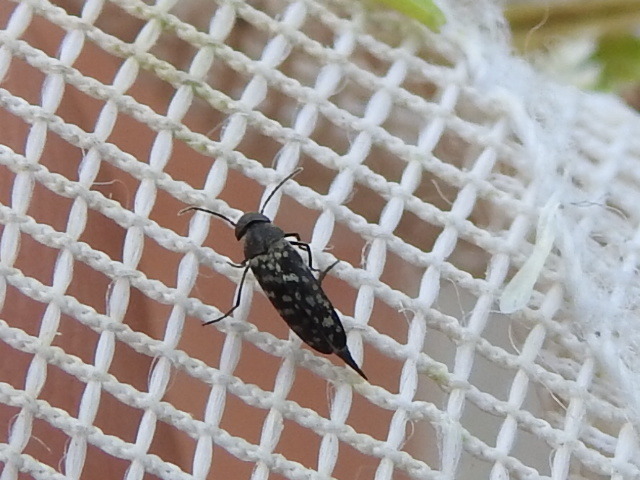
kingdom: Animalia
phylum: Arthropoda
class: Insecta
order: Coleoptera
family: Mordellidae
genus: Mordellina
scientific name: Mordellina pustulata
